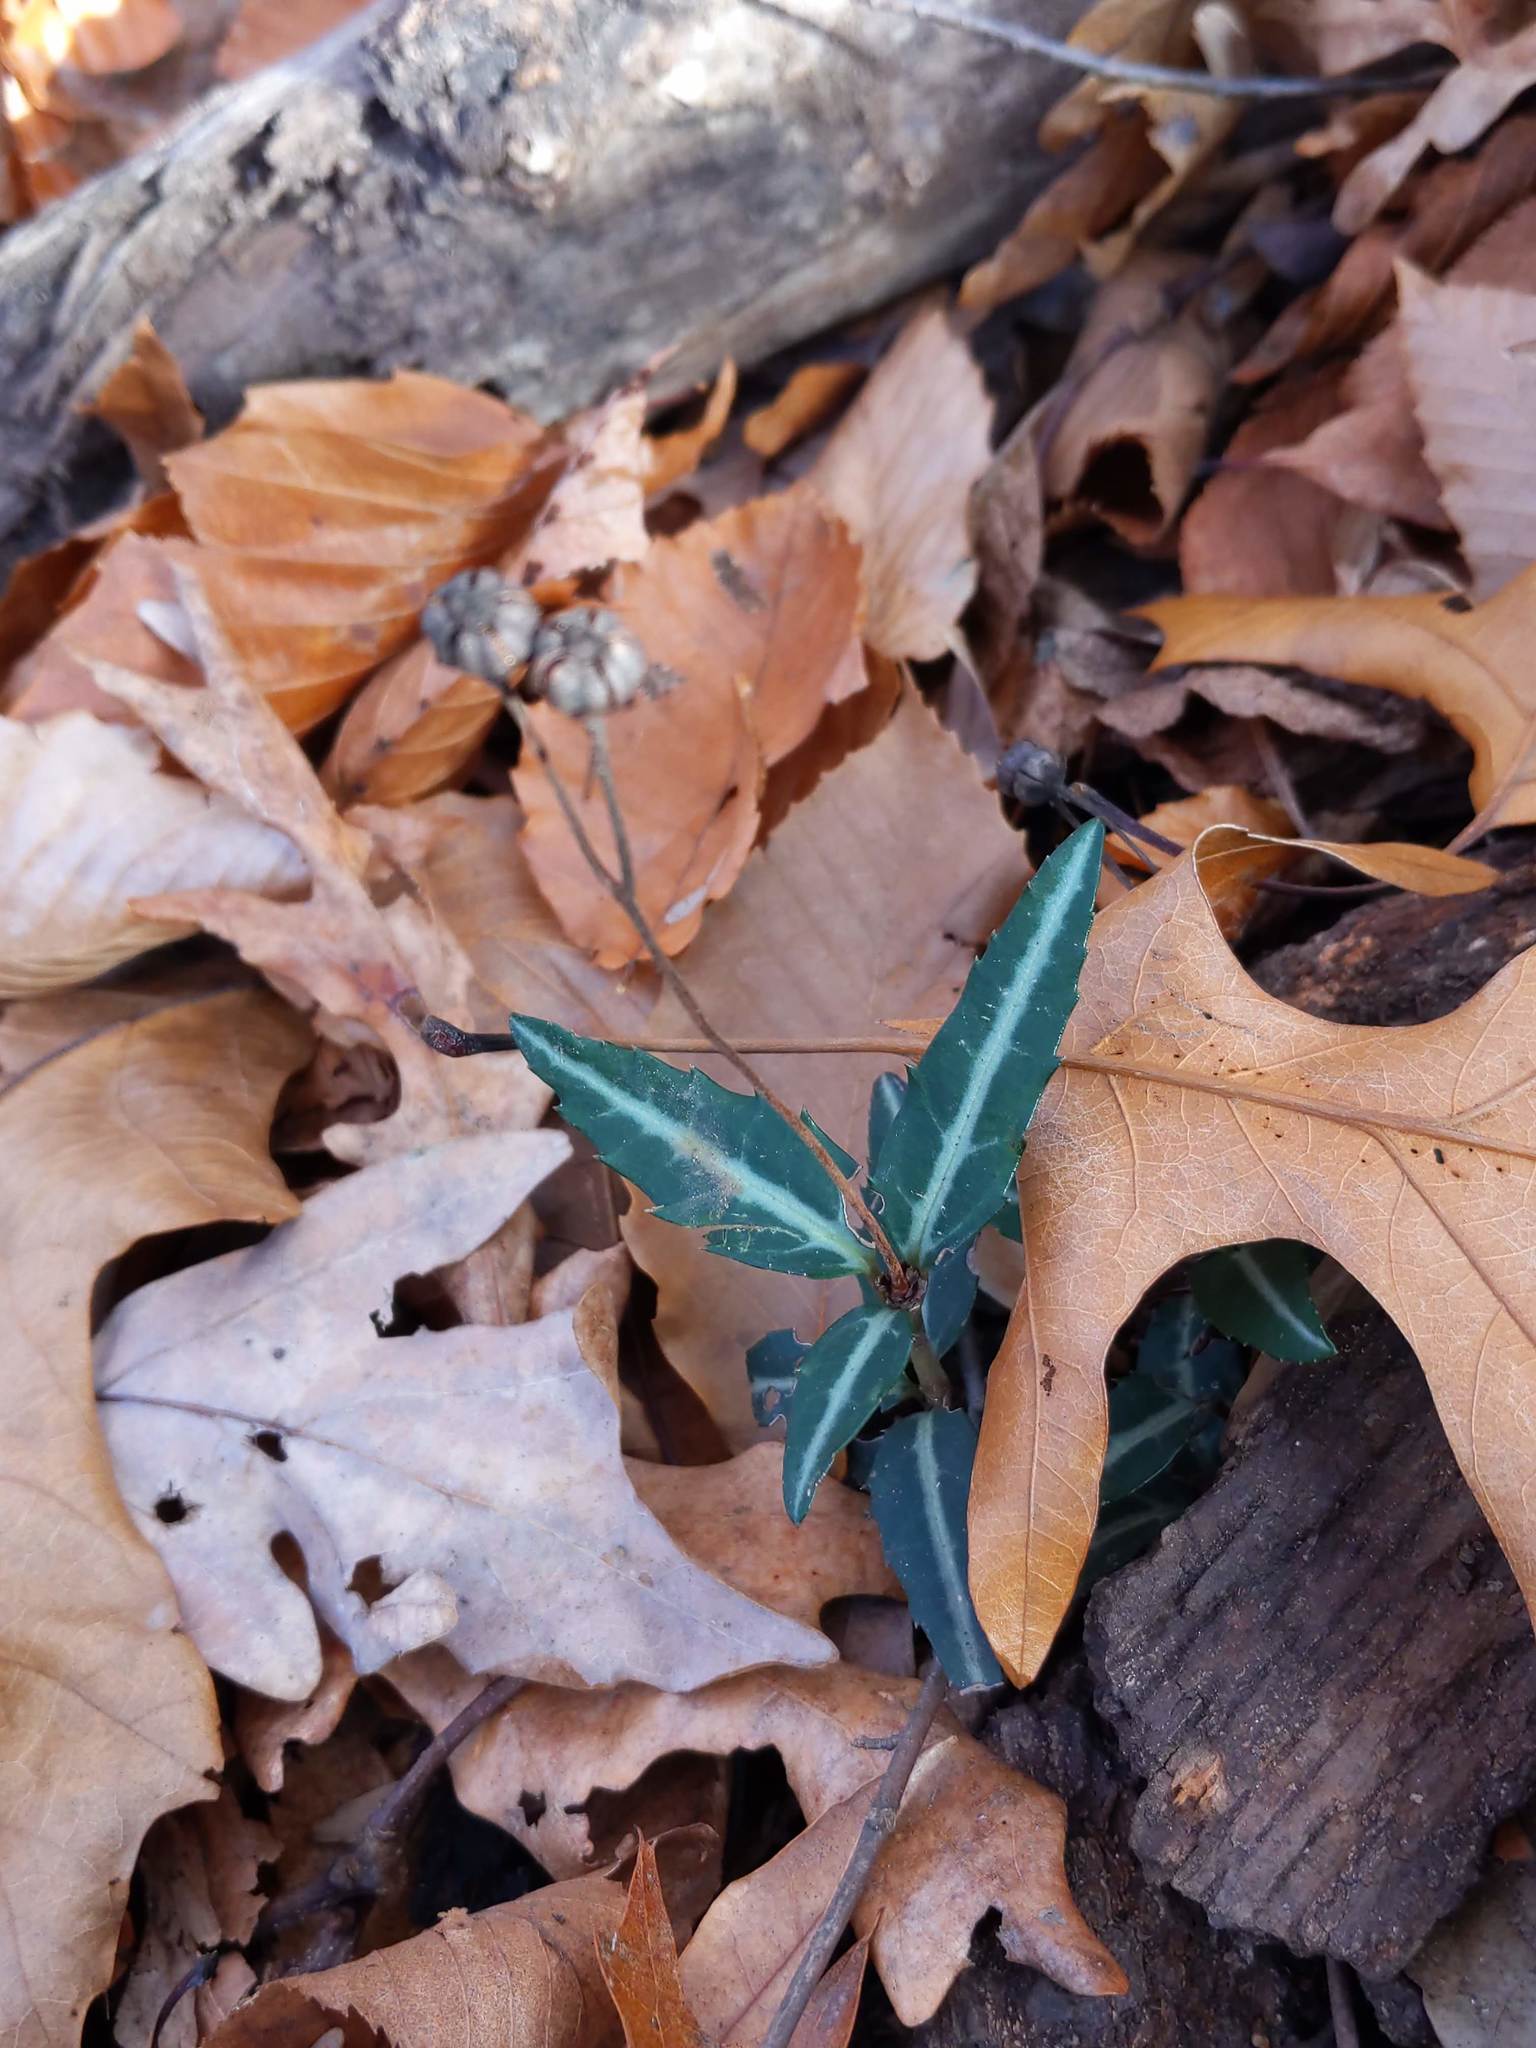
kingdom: Plantae
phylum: Tracheophyta
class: Magnoliopsida
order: Ericales
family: Ericaceae
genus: Chimaphila
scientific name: Chimaphila maculata
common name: Spotted pipsissewa
